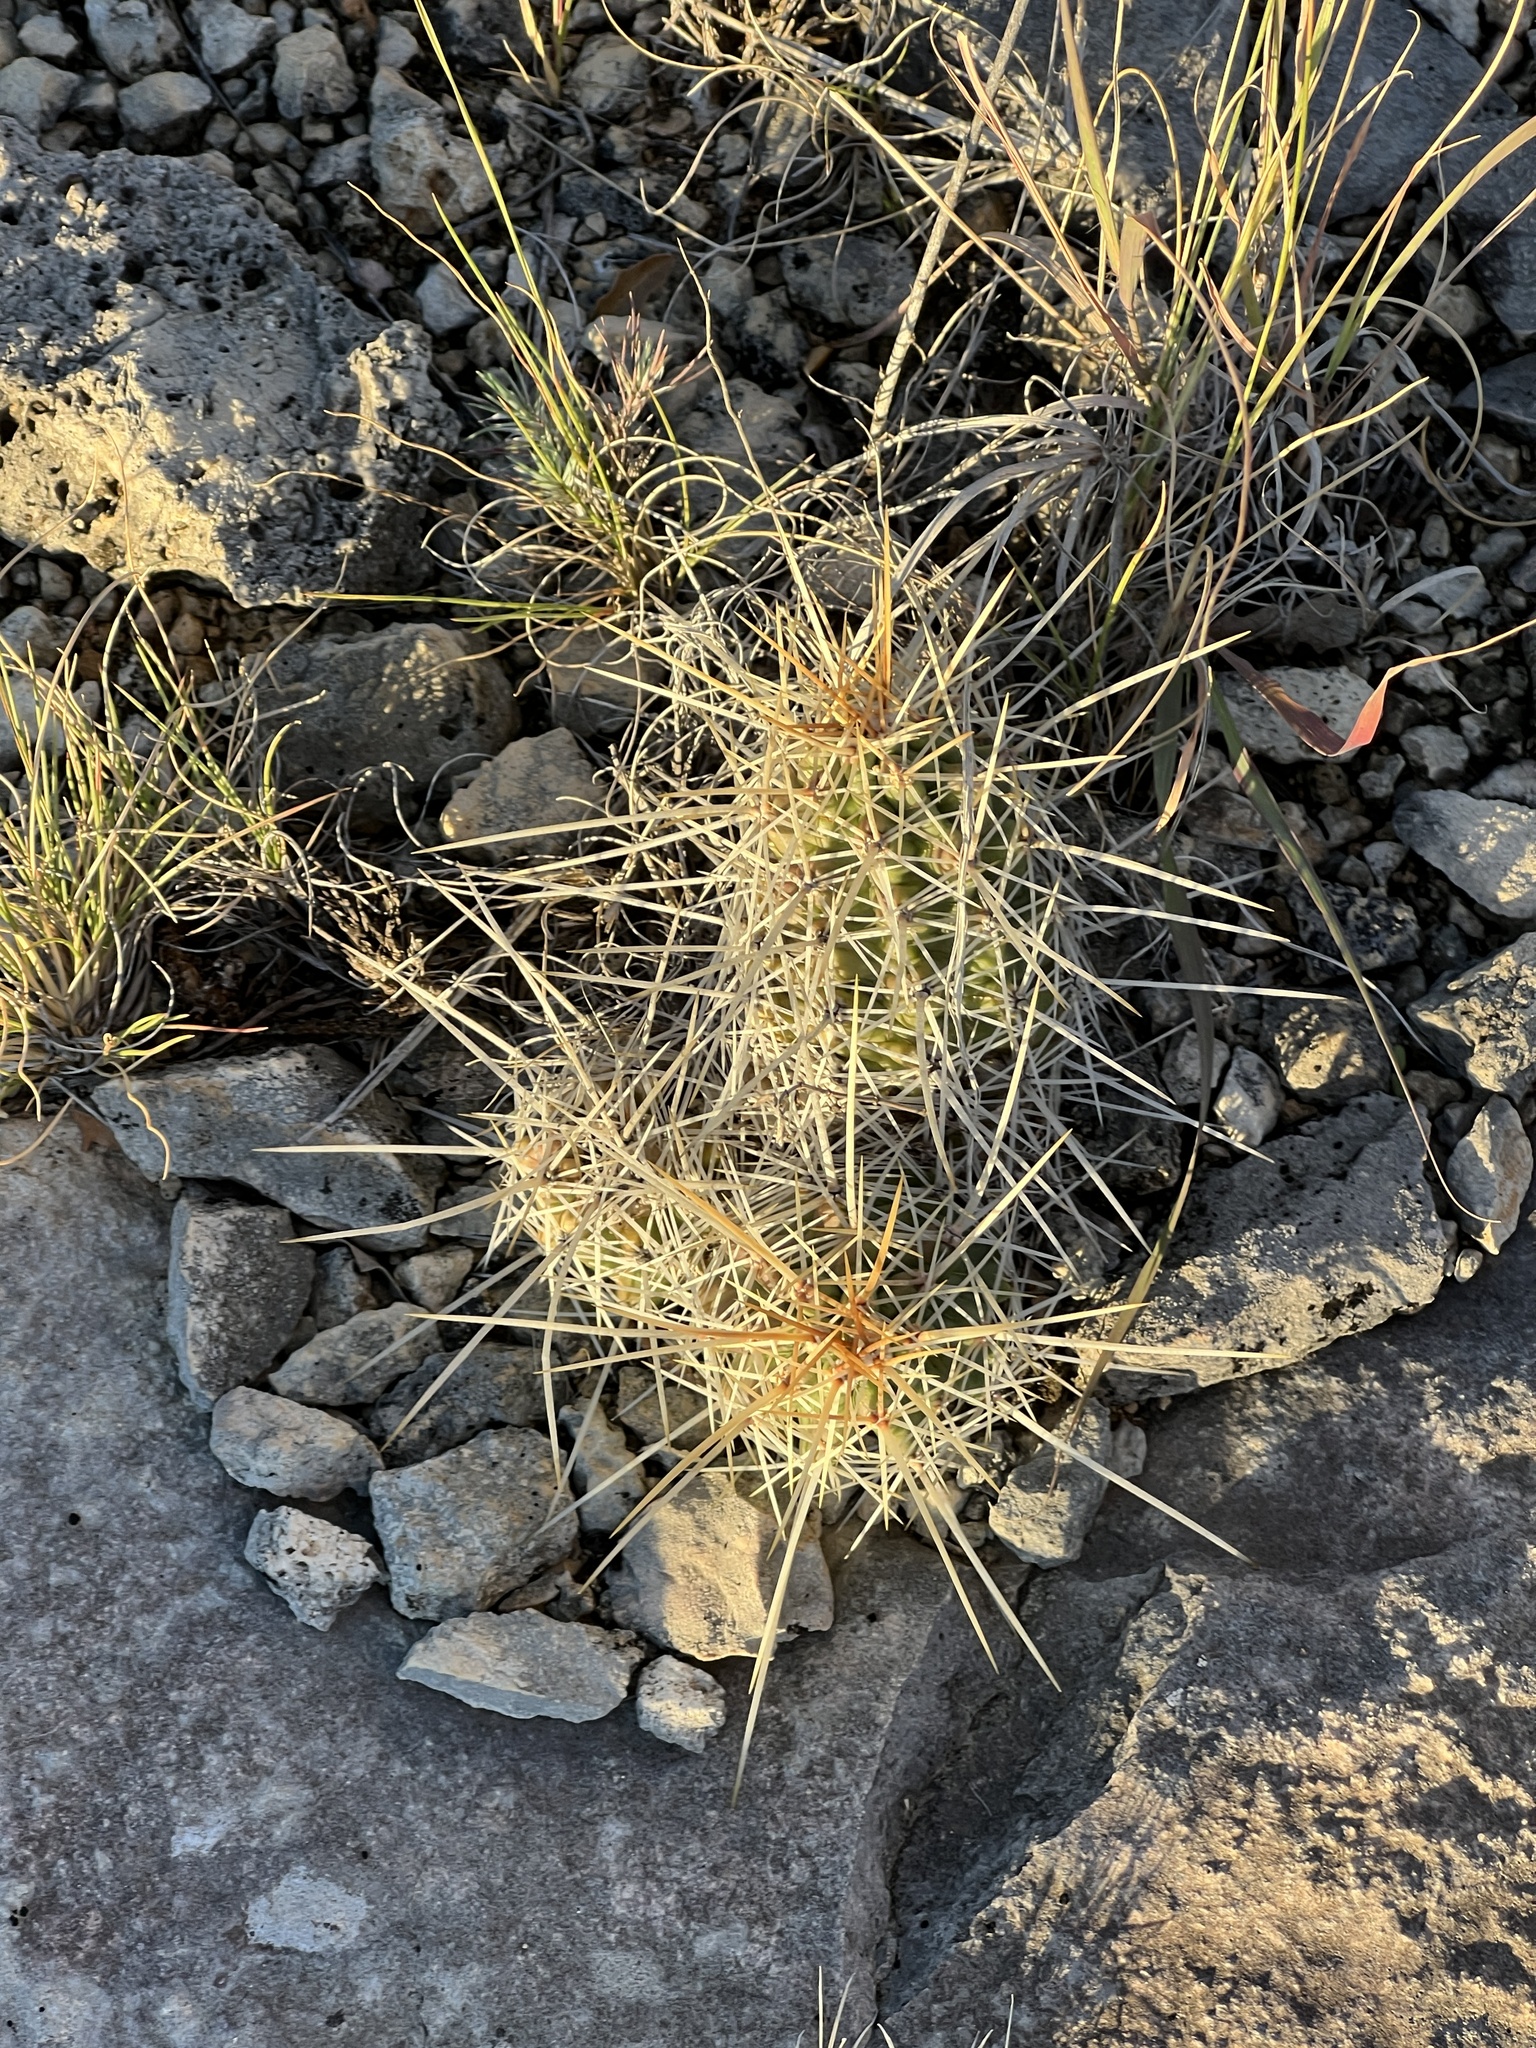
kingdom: Plantae
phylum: Tracheophyta
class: Magnoliopsida
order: Caryophyllales
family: Cactaceae
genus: Echinocereus
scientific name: Echinocereus enneacanthus
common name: Pitaya
